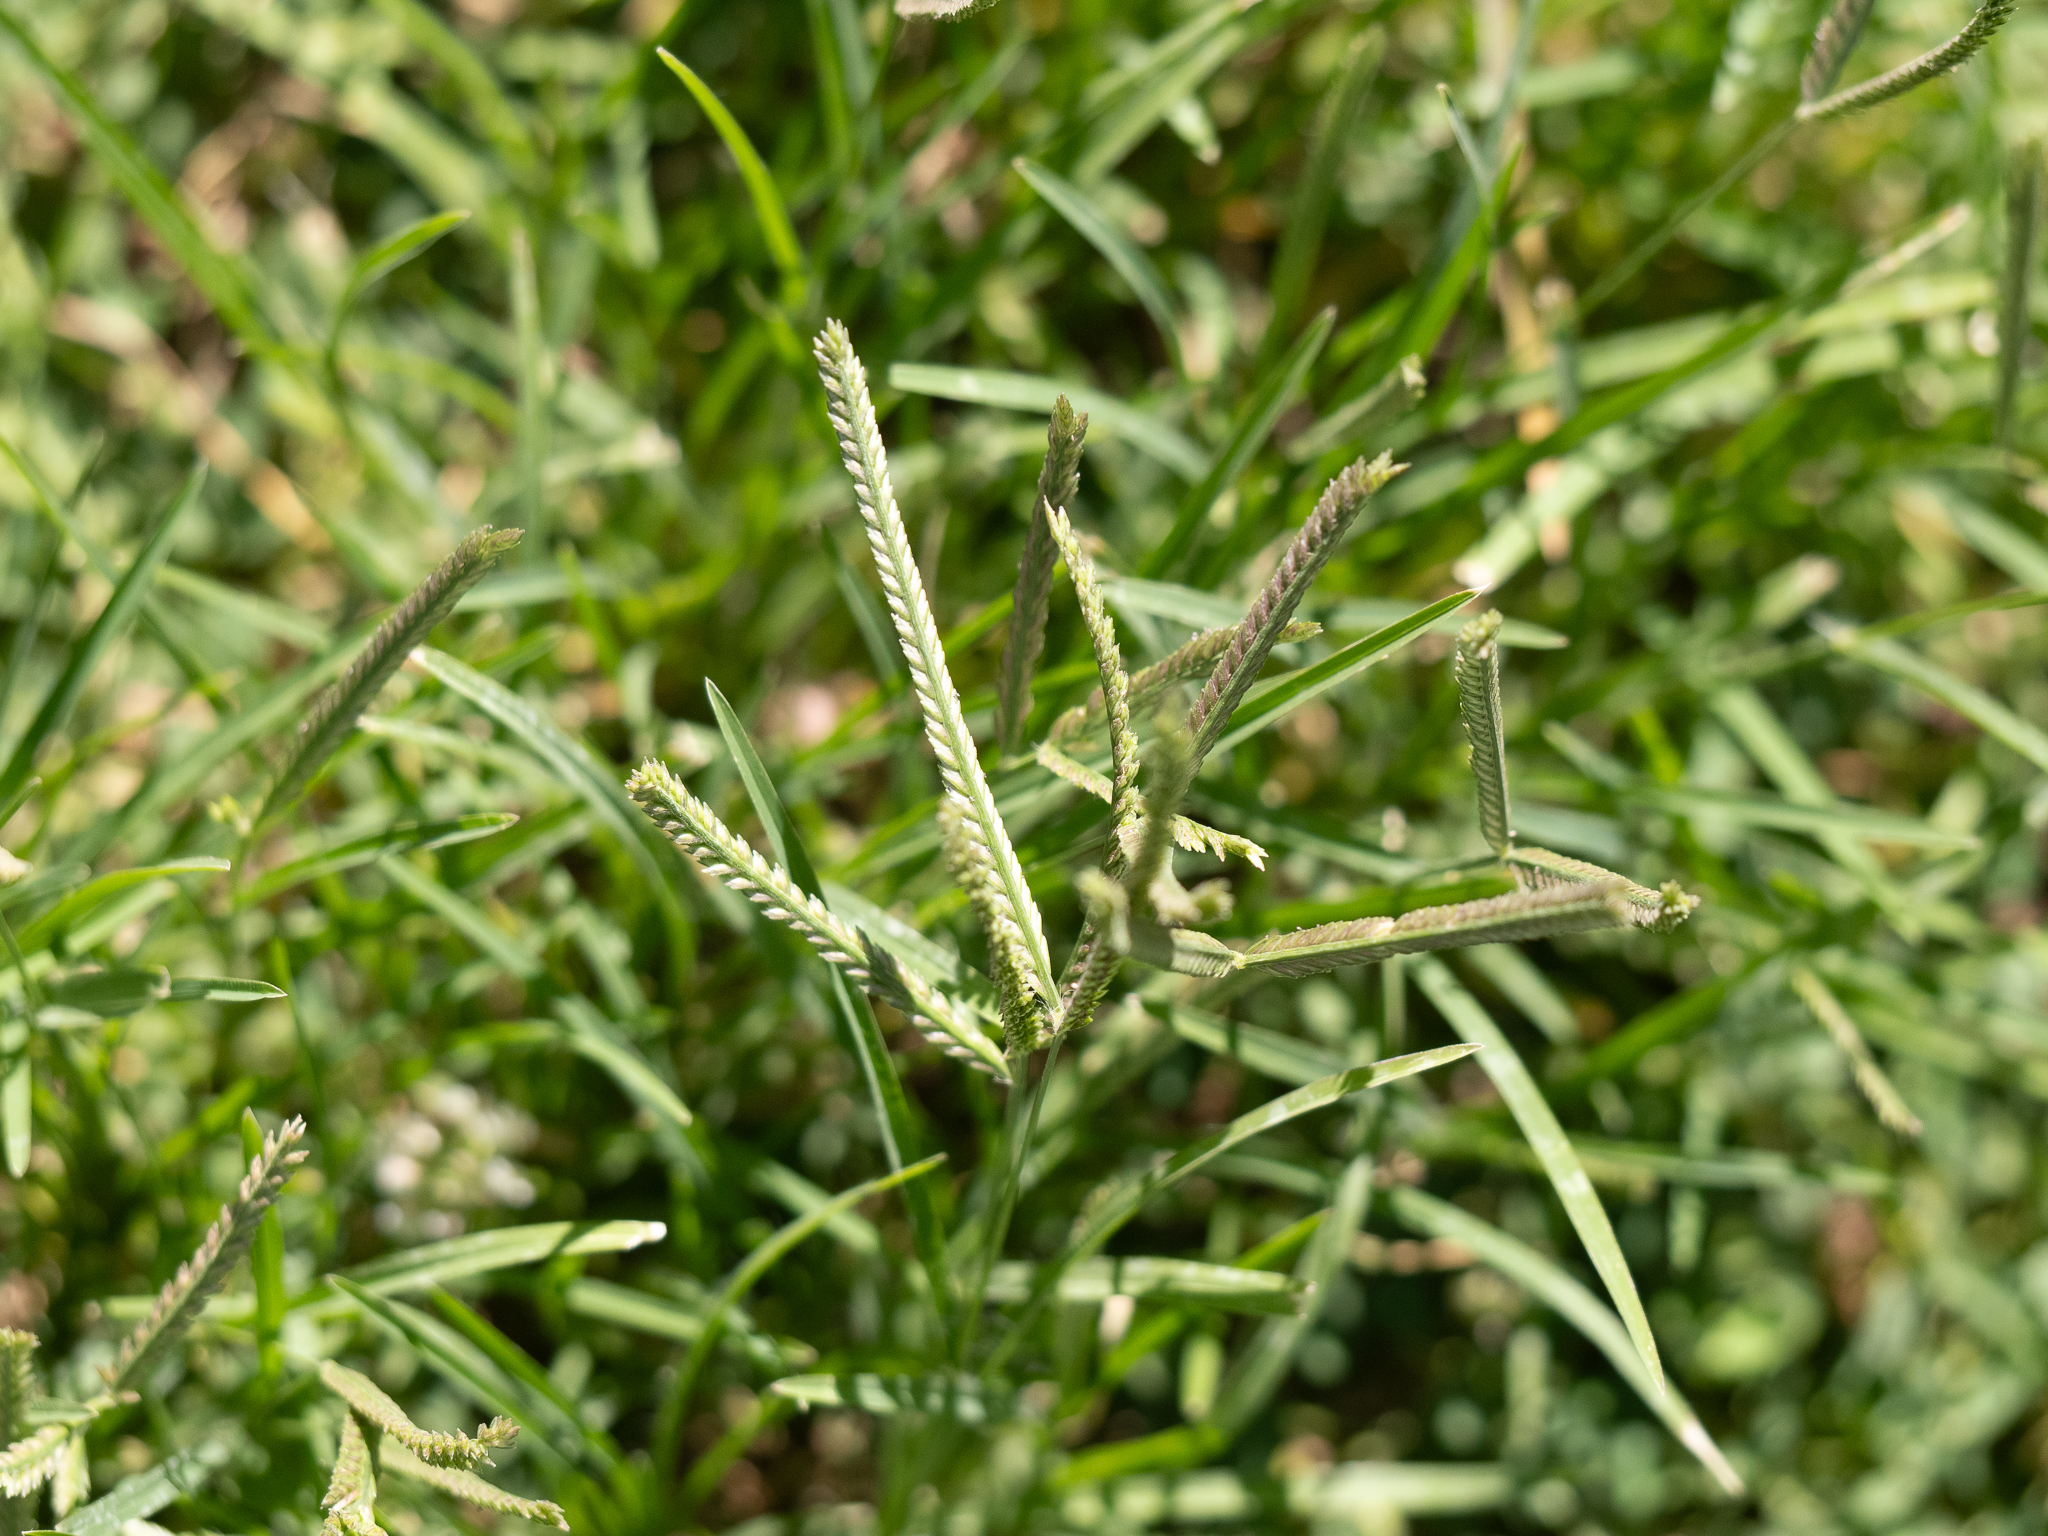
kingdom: Plantae
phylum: Tracheophyta
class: Liliopsida
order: Poales
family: Poaceae
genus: Eleusine
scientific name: Eleusine indica
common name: Yard-grass
